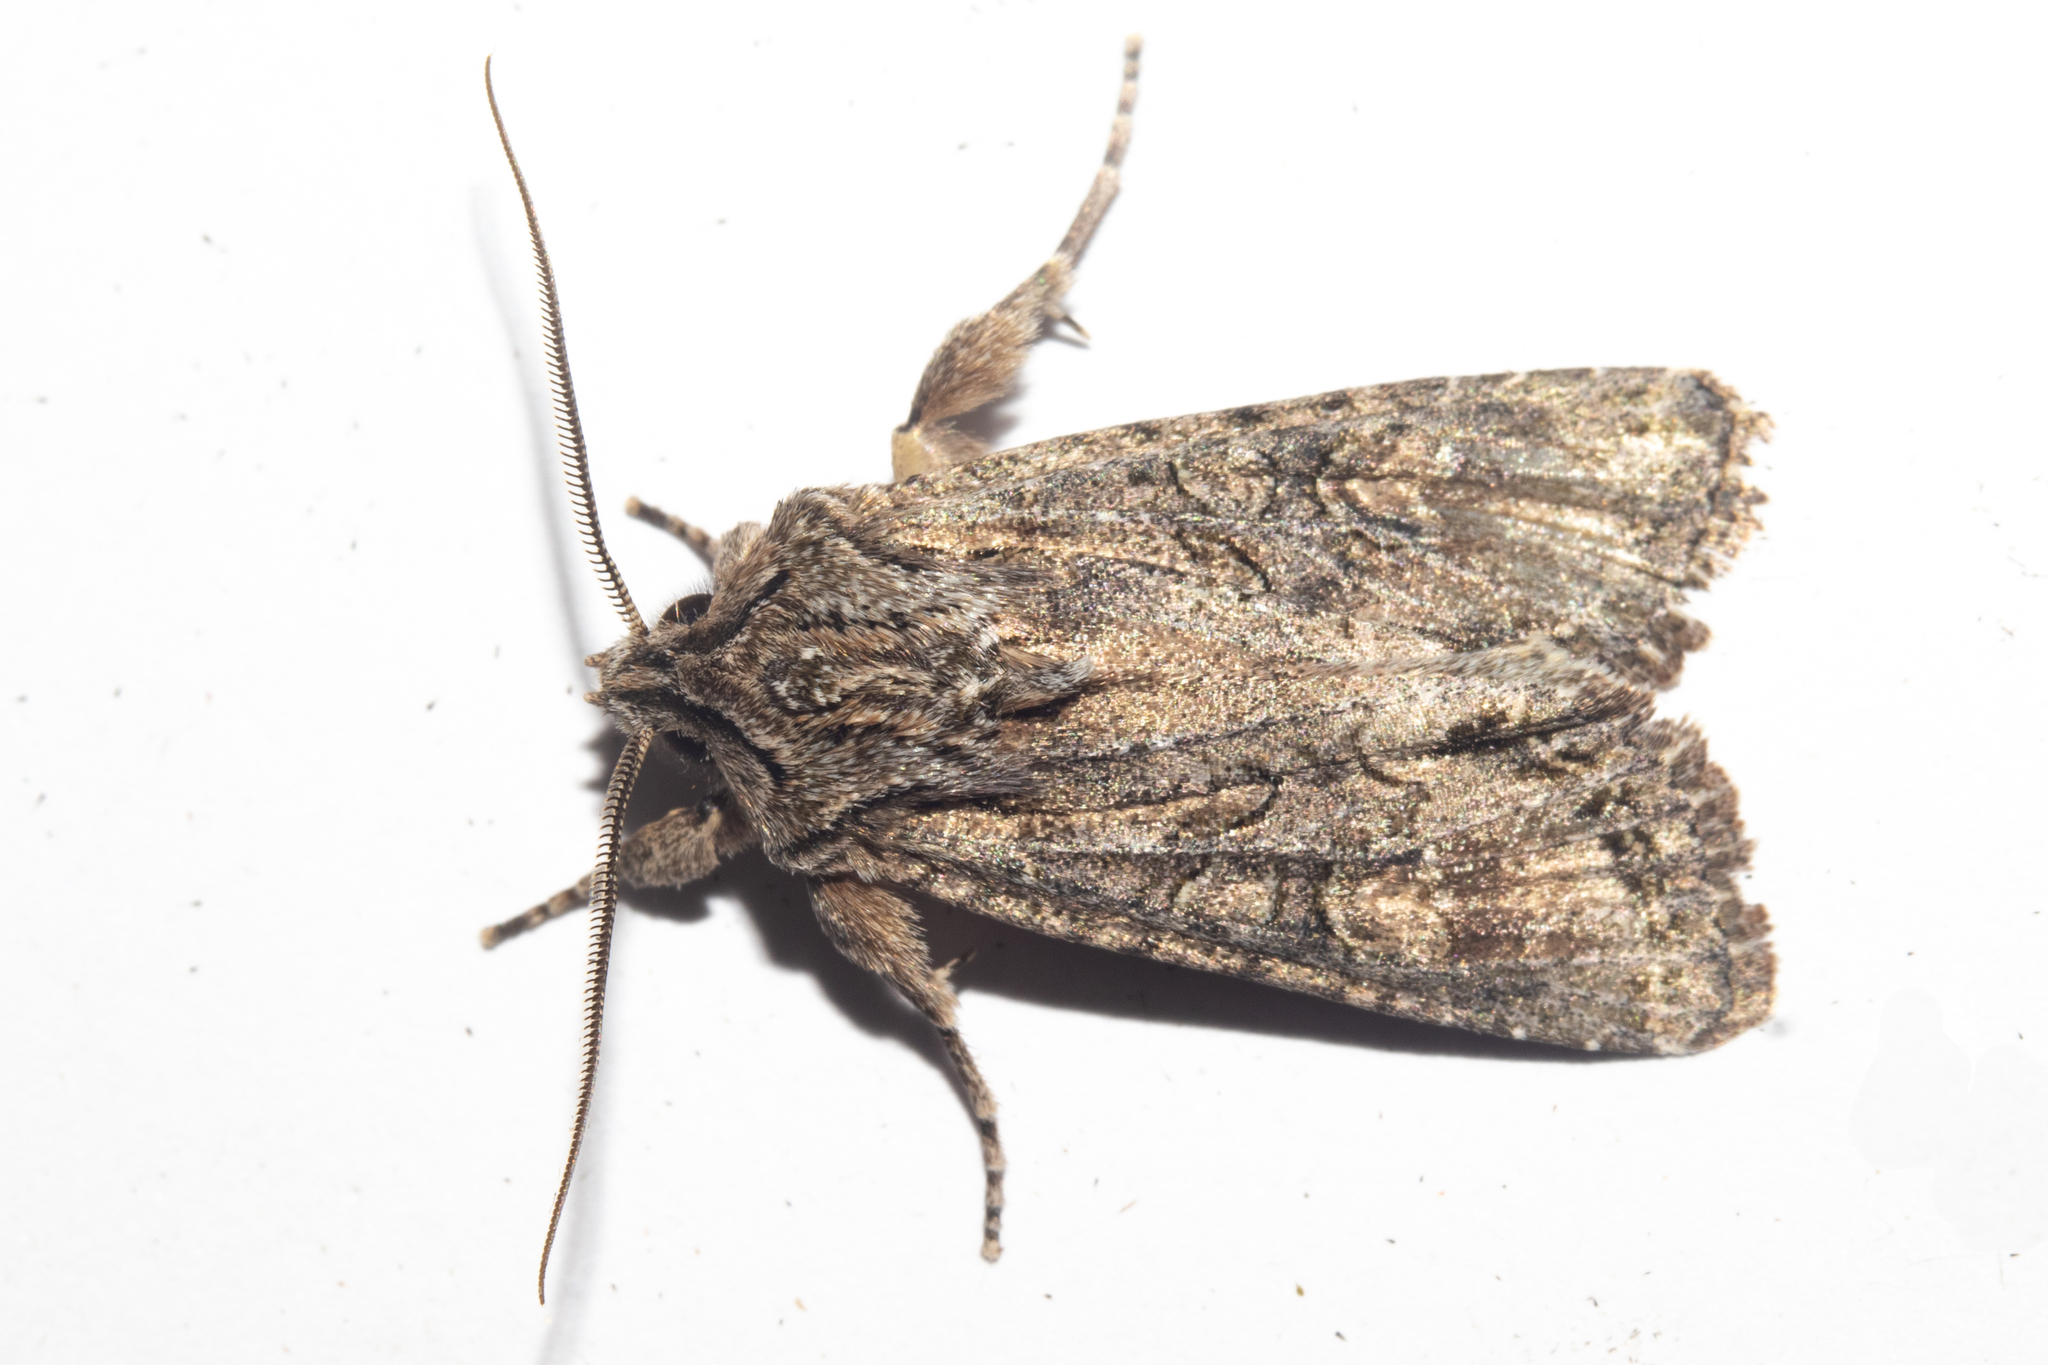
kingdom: Animalia
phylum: Arthropoda
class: Insecta
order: Lepidoptera
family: Noctuidae
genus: Ichneutica
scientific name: Ichneutica mutans
